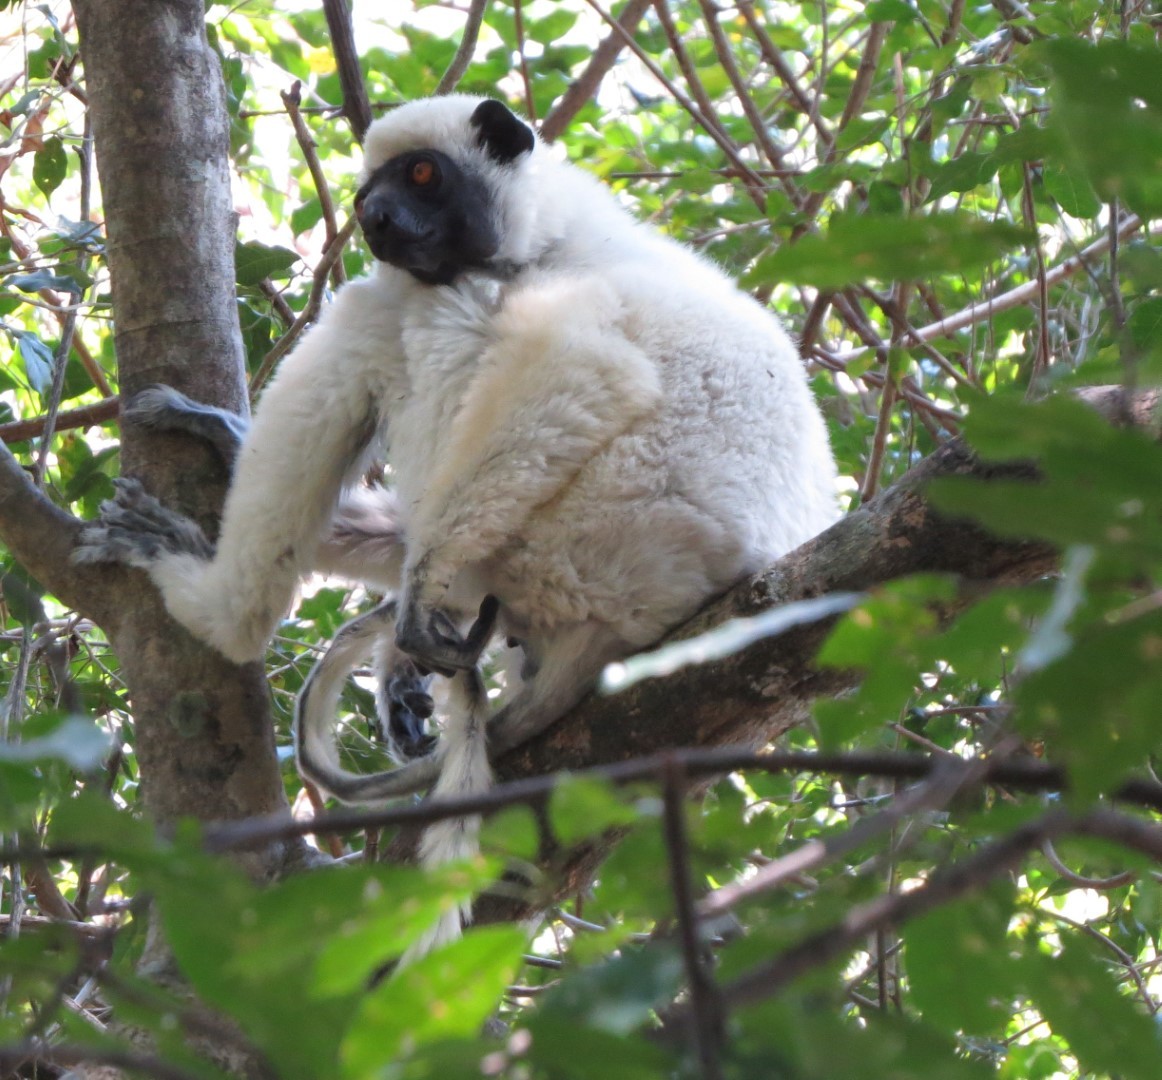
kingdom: Animalia
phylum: Chordata
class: Mammalia
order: Primates
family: Indriidae
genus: Propithecus
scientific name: Propithecus deckenii
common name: Decken's sifaka
